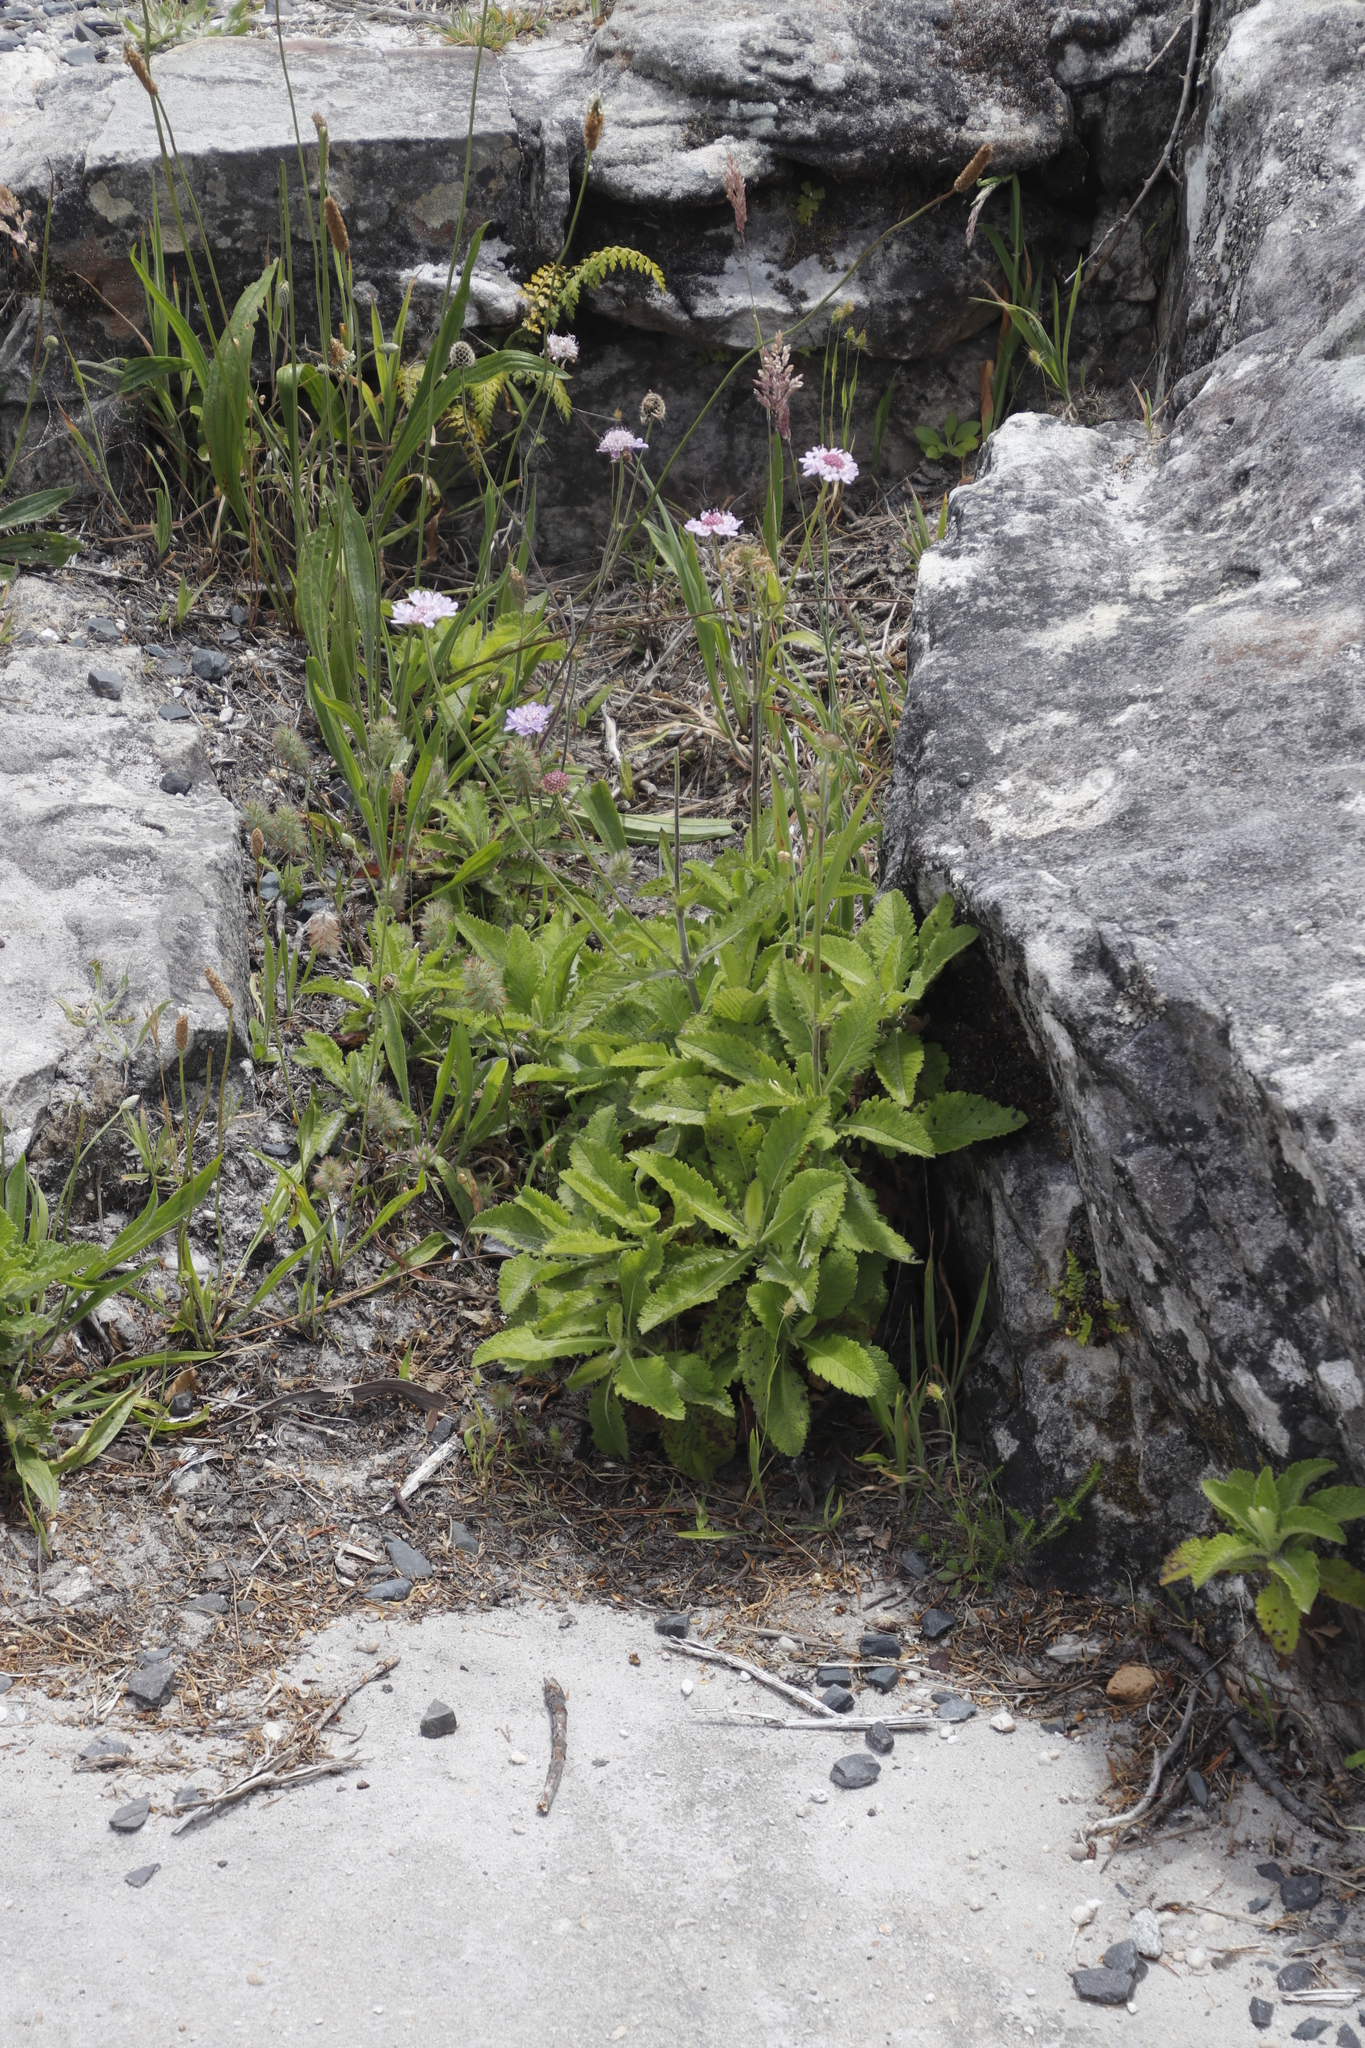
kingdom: Plantae
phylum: Tracheophyta
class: Magnoliopsida
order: Dipsacales
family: Caprifoliaceae
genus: Scabiosa
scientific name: Scabiosa africana
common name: Cape scabious
